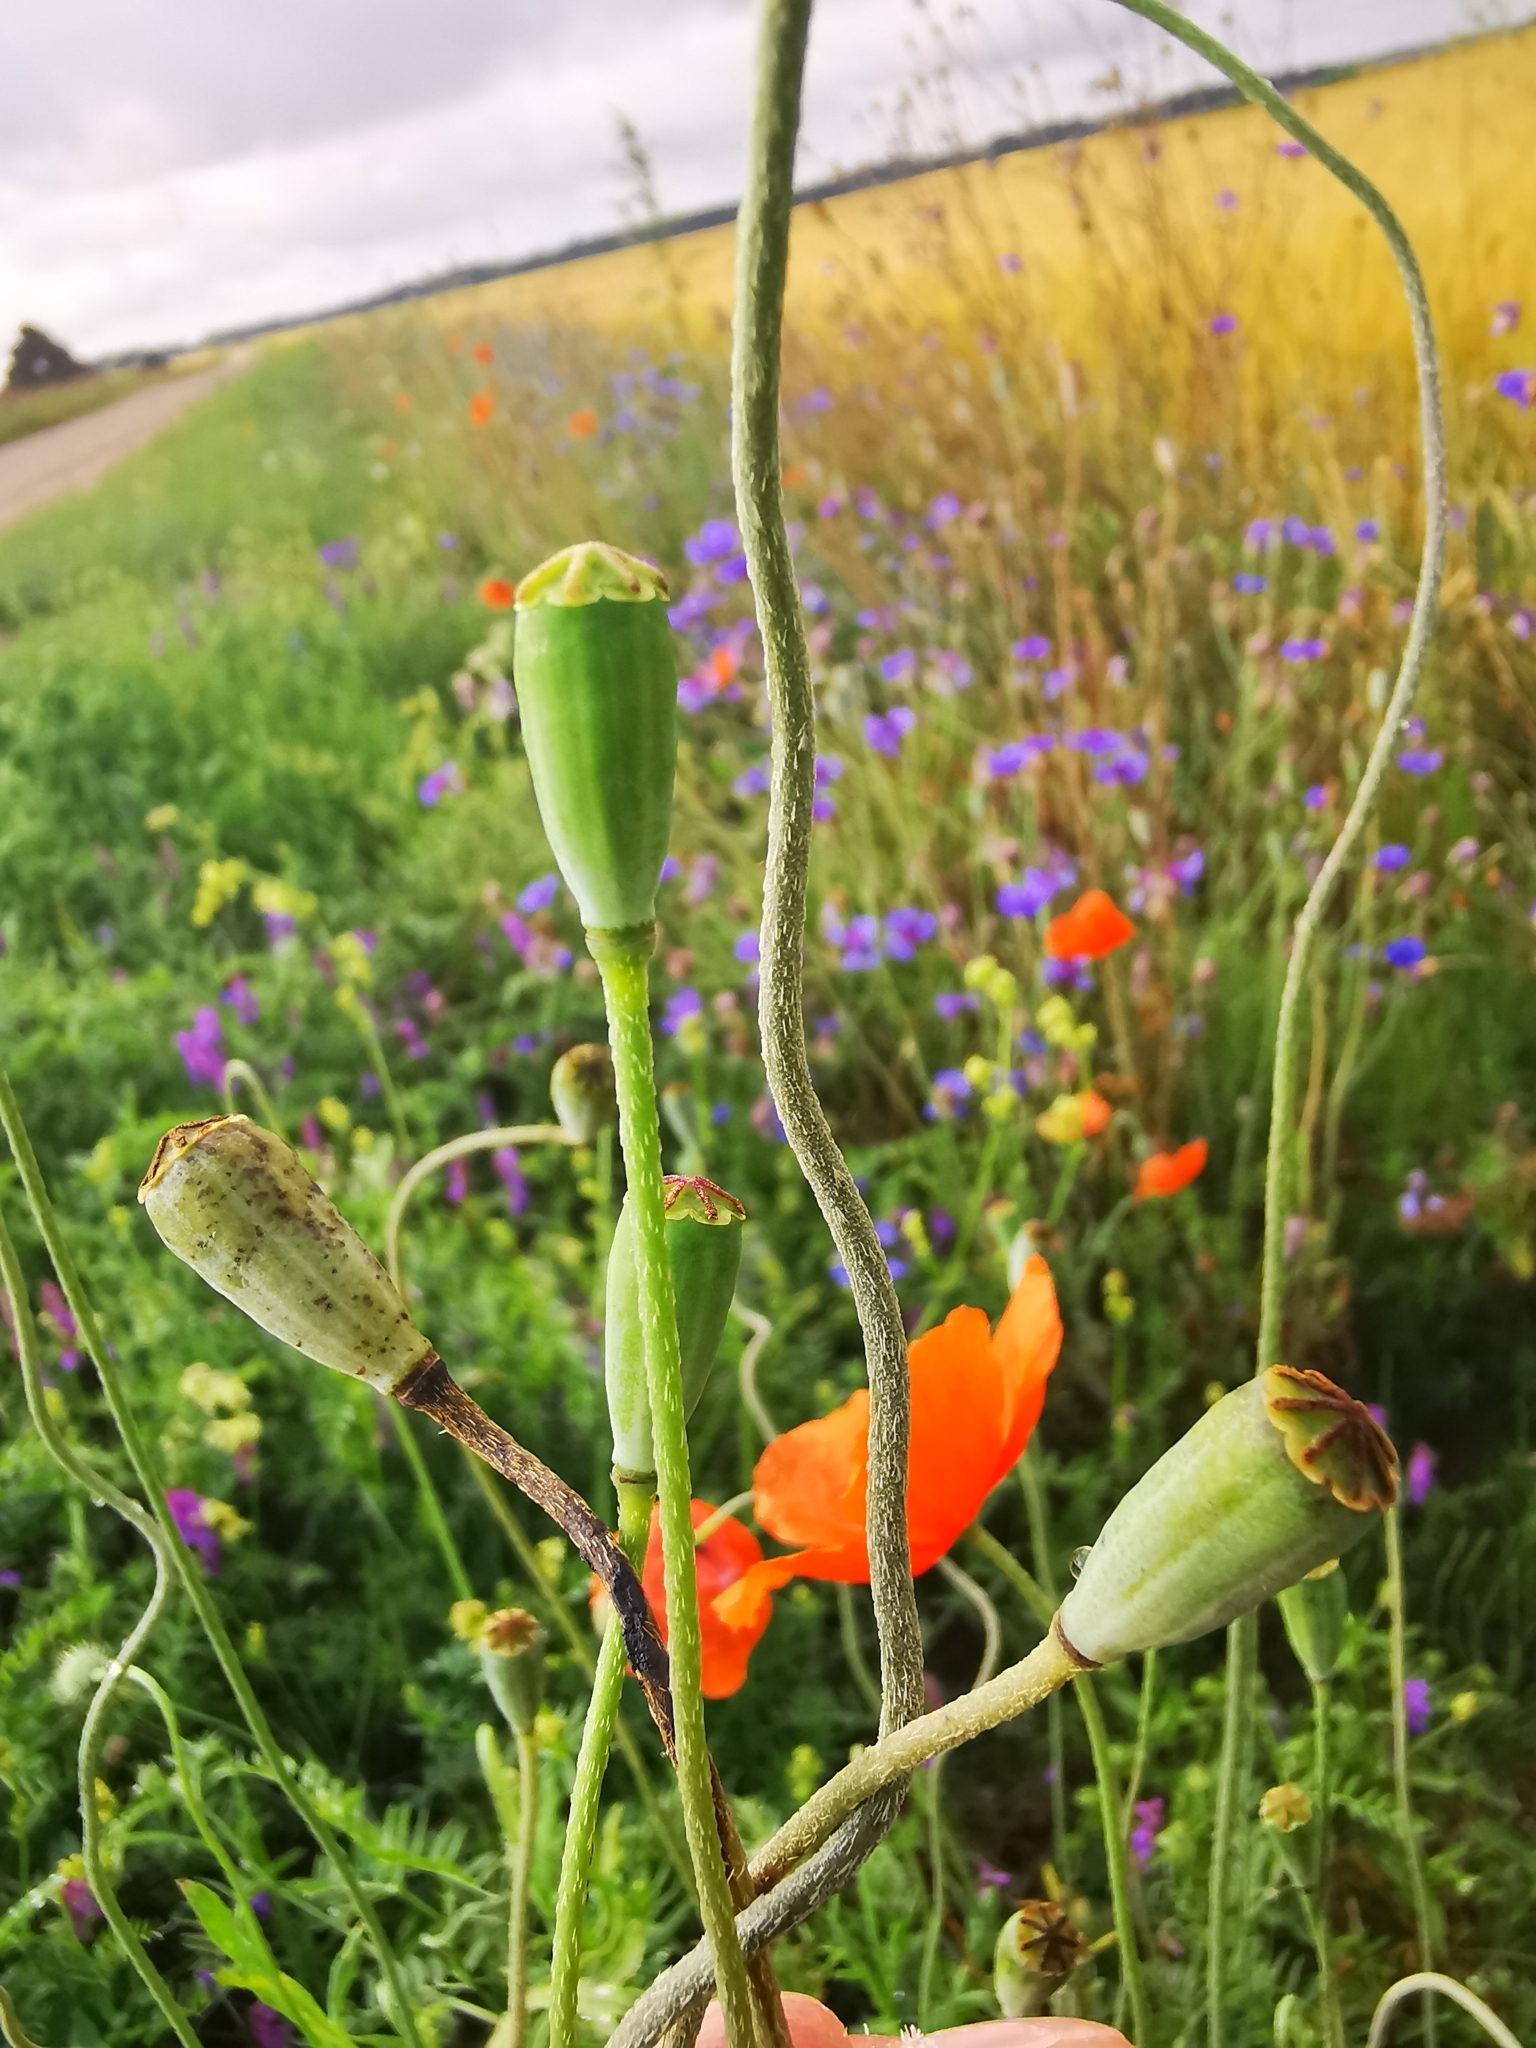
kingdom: Plantae
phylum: Tracheophyta
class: Magnoliopsida
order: Ranunculales
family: Papaveraceae
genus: Papaver
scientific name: Papaver dubium
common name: Long-headed poppy
